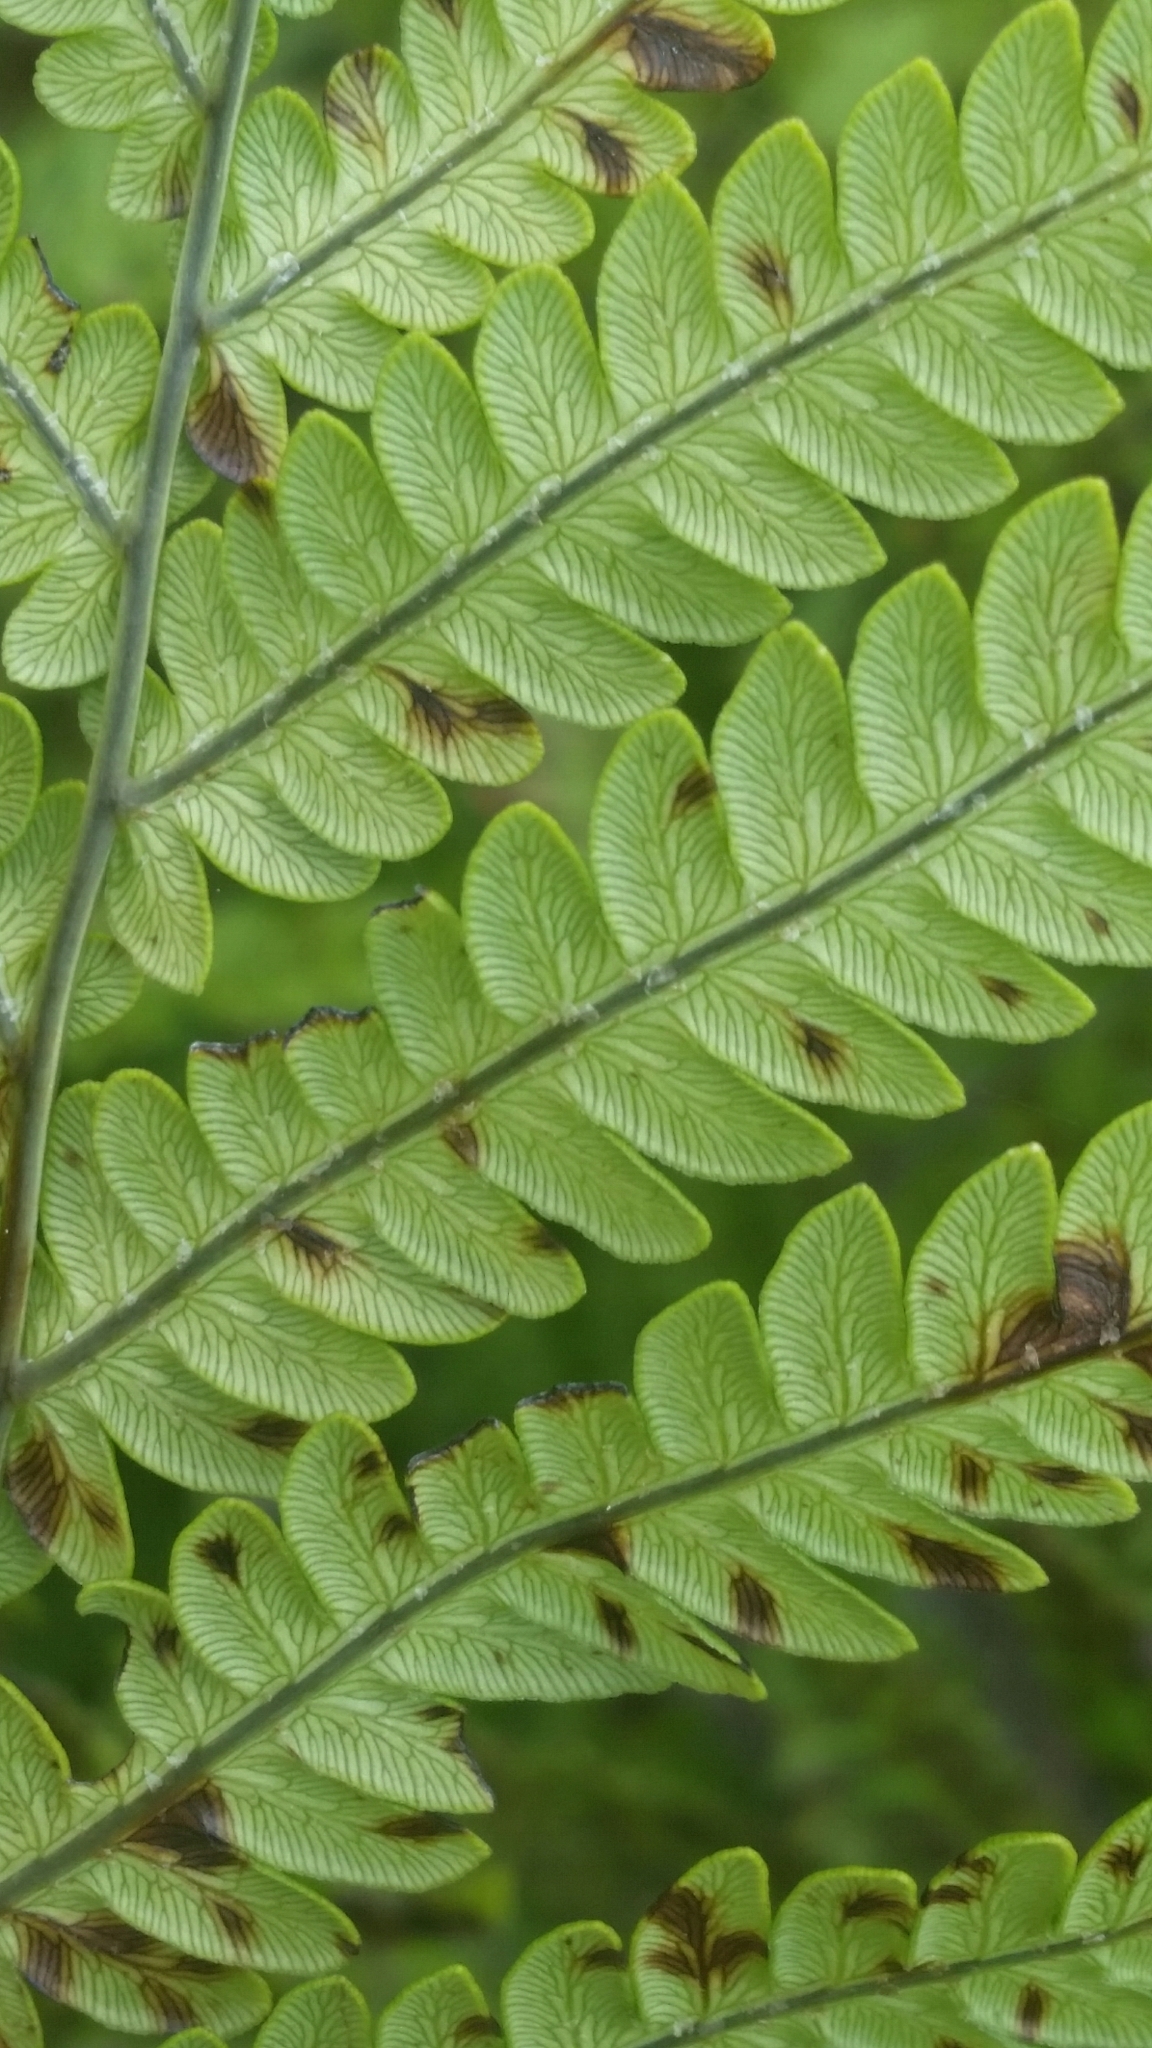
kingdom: Plantae
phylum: Tracheophyta
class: Polypodiopsida
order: Polypodiales
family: Blechnaceae
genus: Anchistea
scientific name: Anchistea virginica
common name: Virginia chain fern
